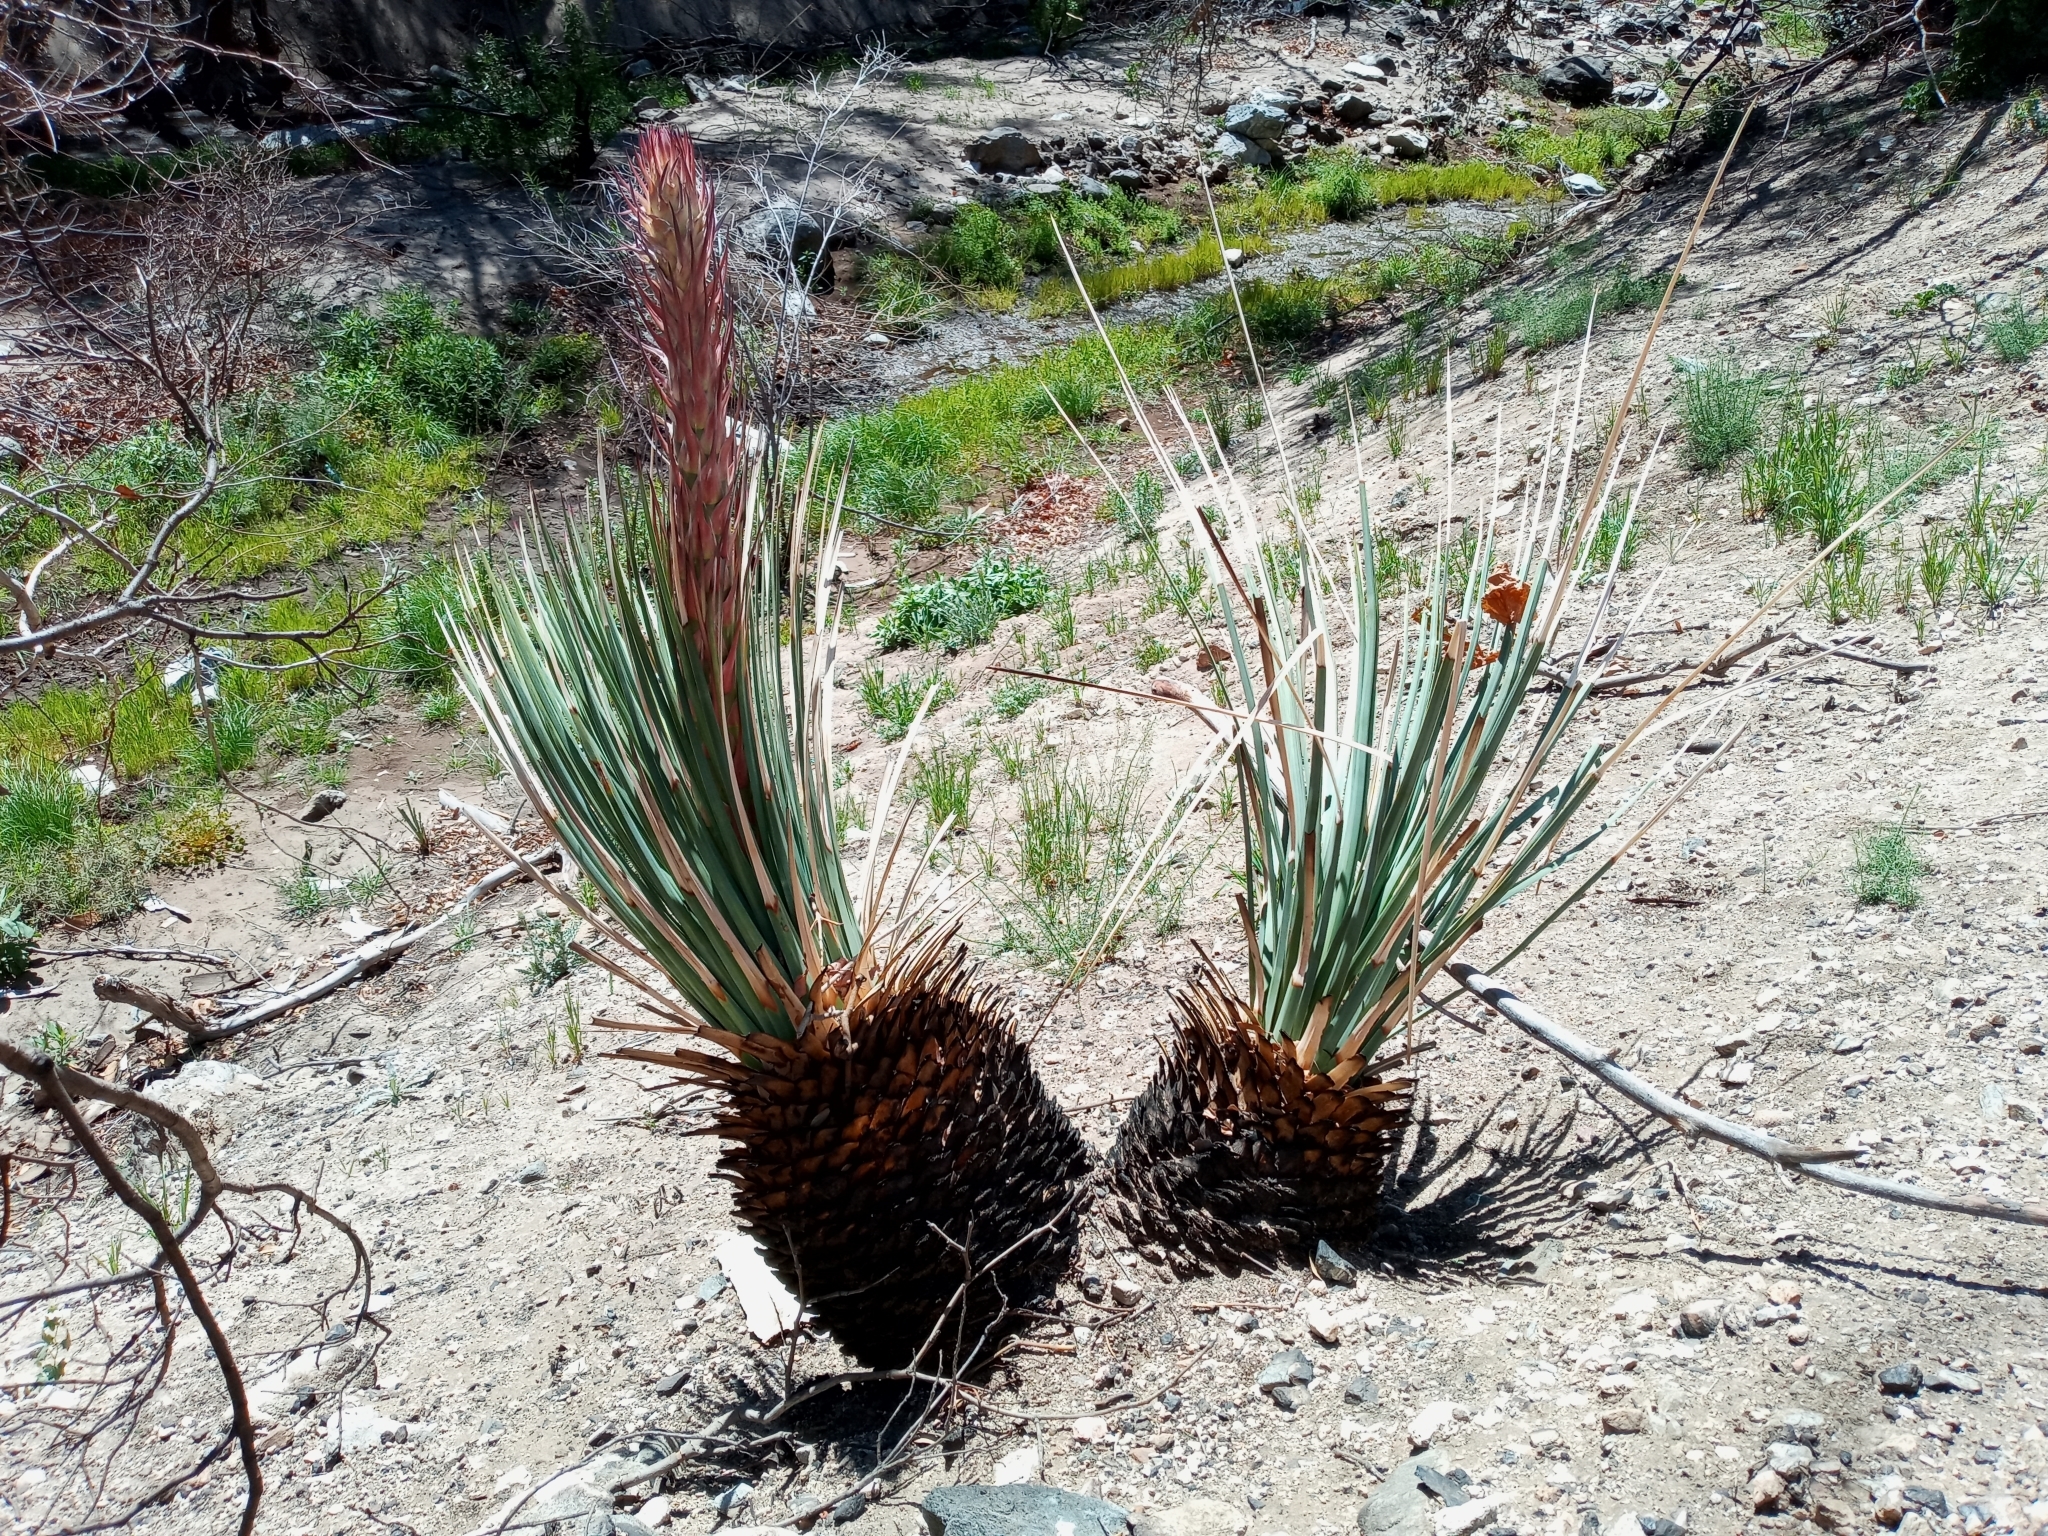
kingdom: Plantae
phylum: Tracheophyta
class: Liliopsida
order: Asparagales
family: Asparagaceae
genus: Hesperoyucca
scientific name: Hesperoyucca whipplei
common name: Our lord's-candle
